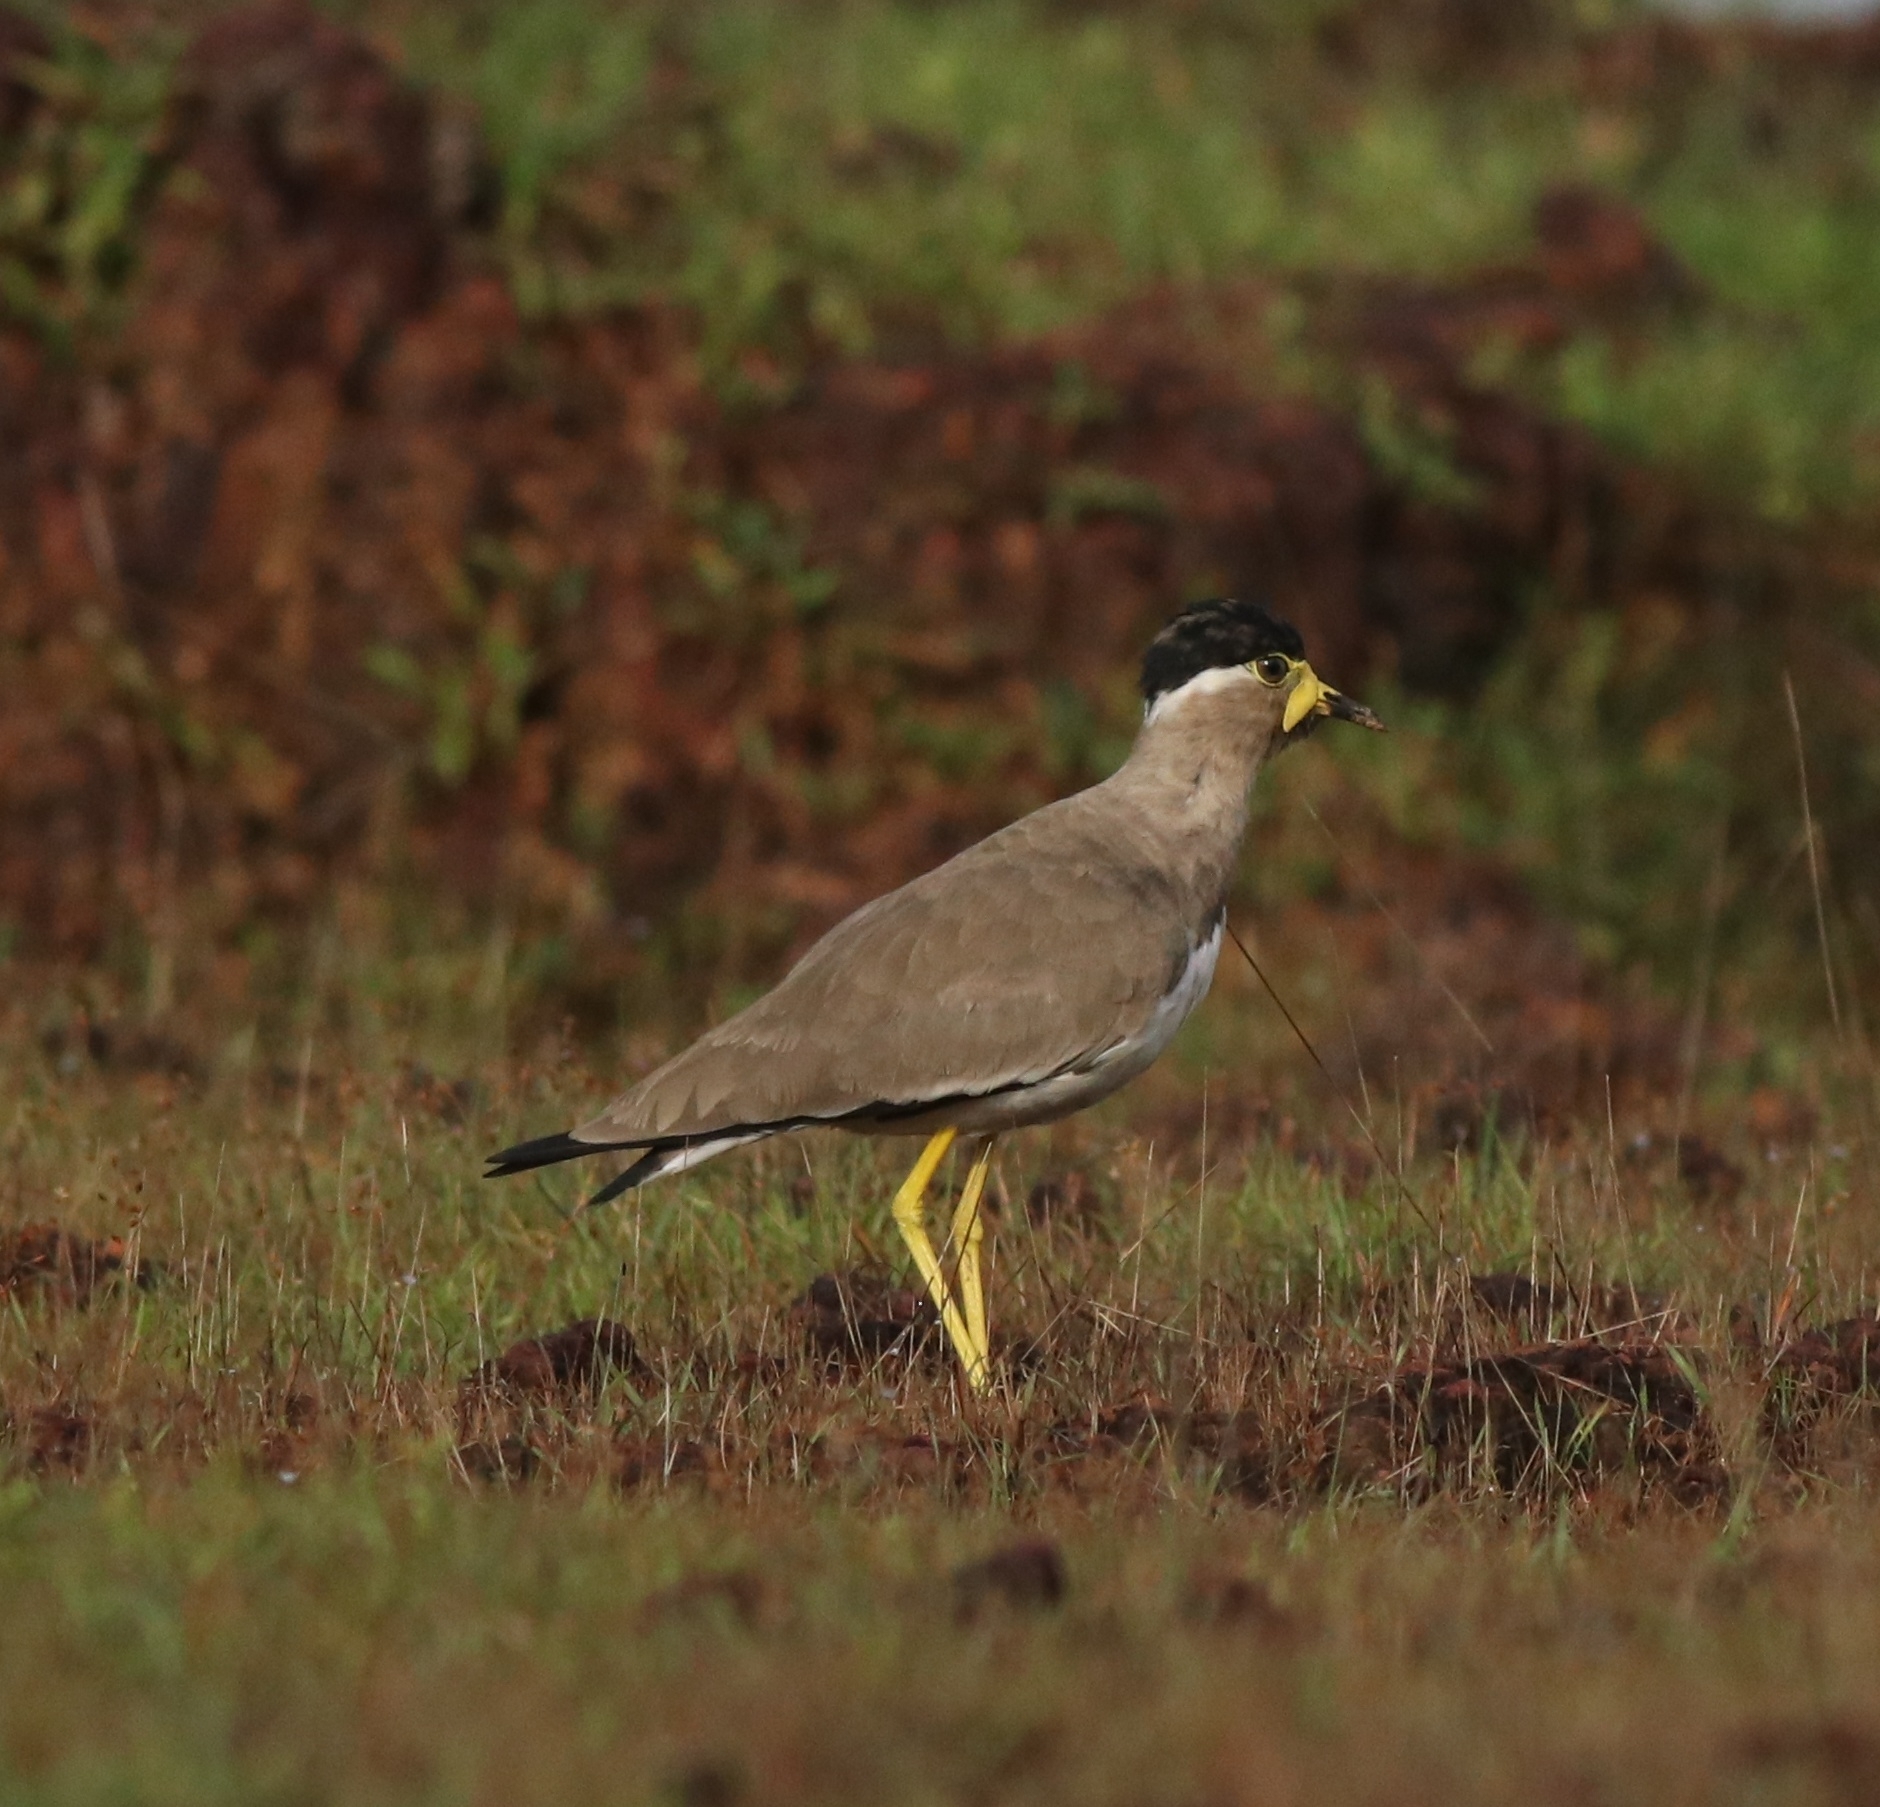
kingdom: Animalia
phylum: Chordata
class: Aves
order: Charadriiformes
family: Charadriidae
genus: Vanellus
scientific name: Vanellus malabaricus
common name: Yellow-wattled lapwing
